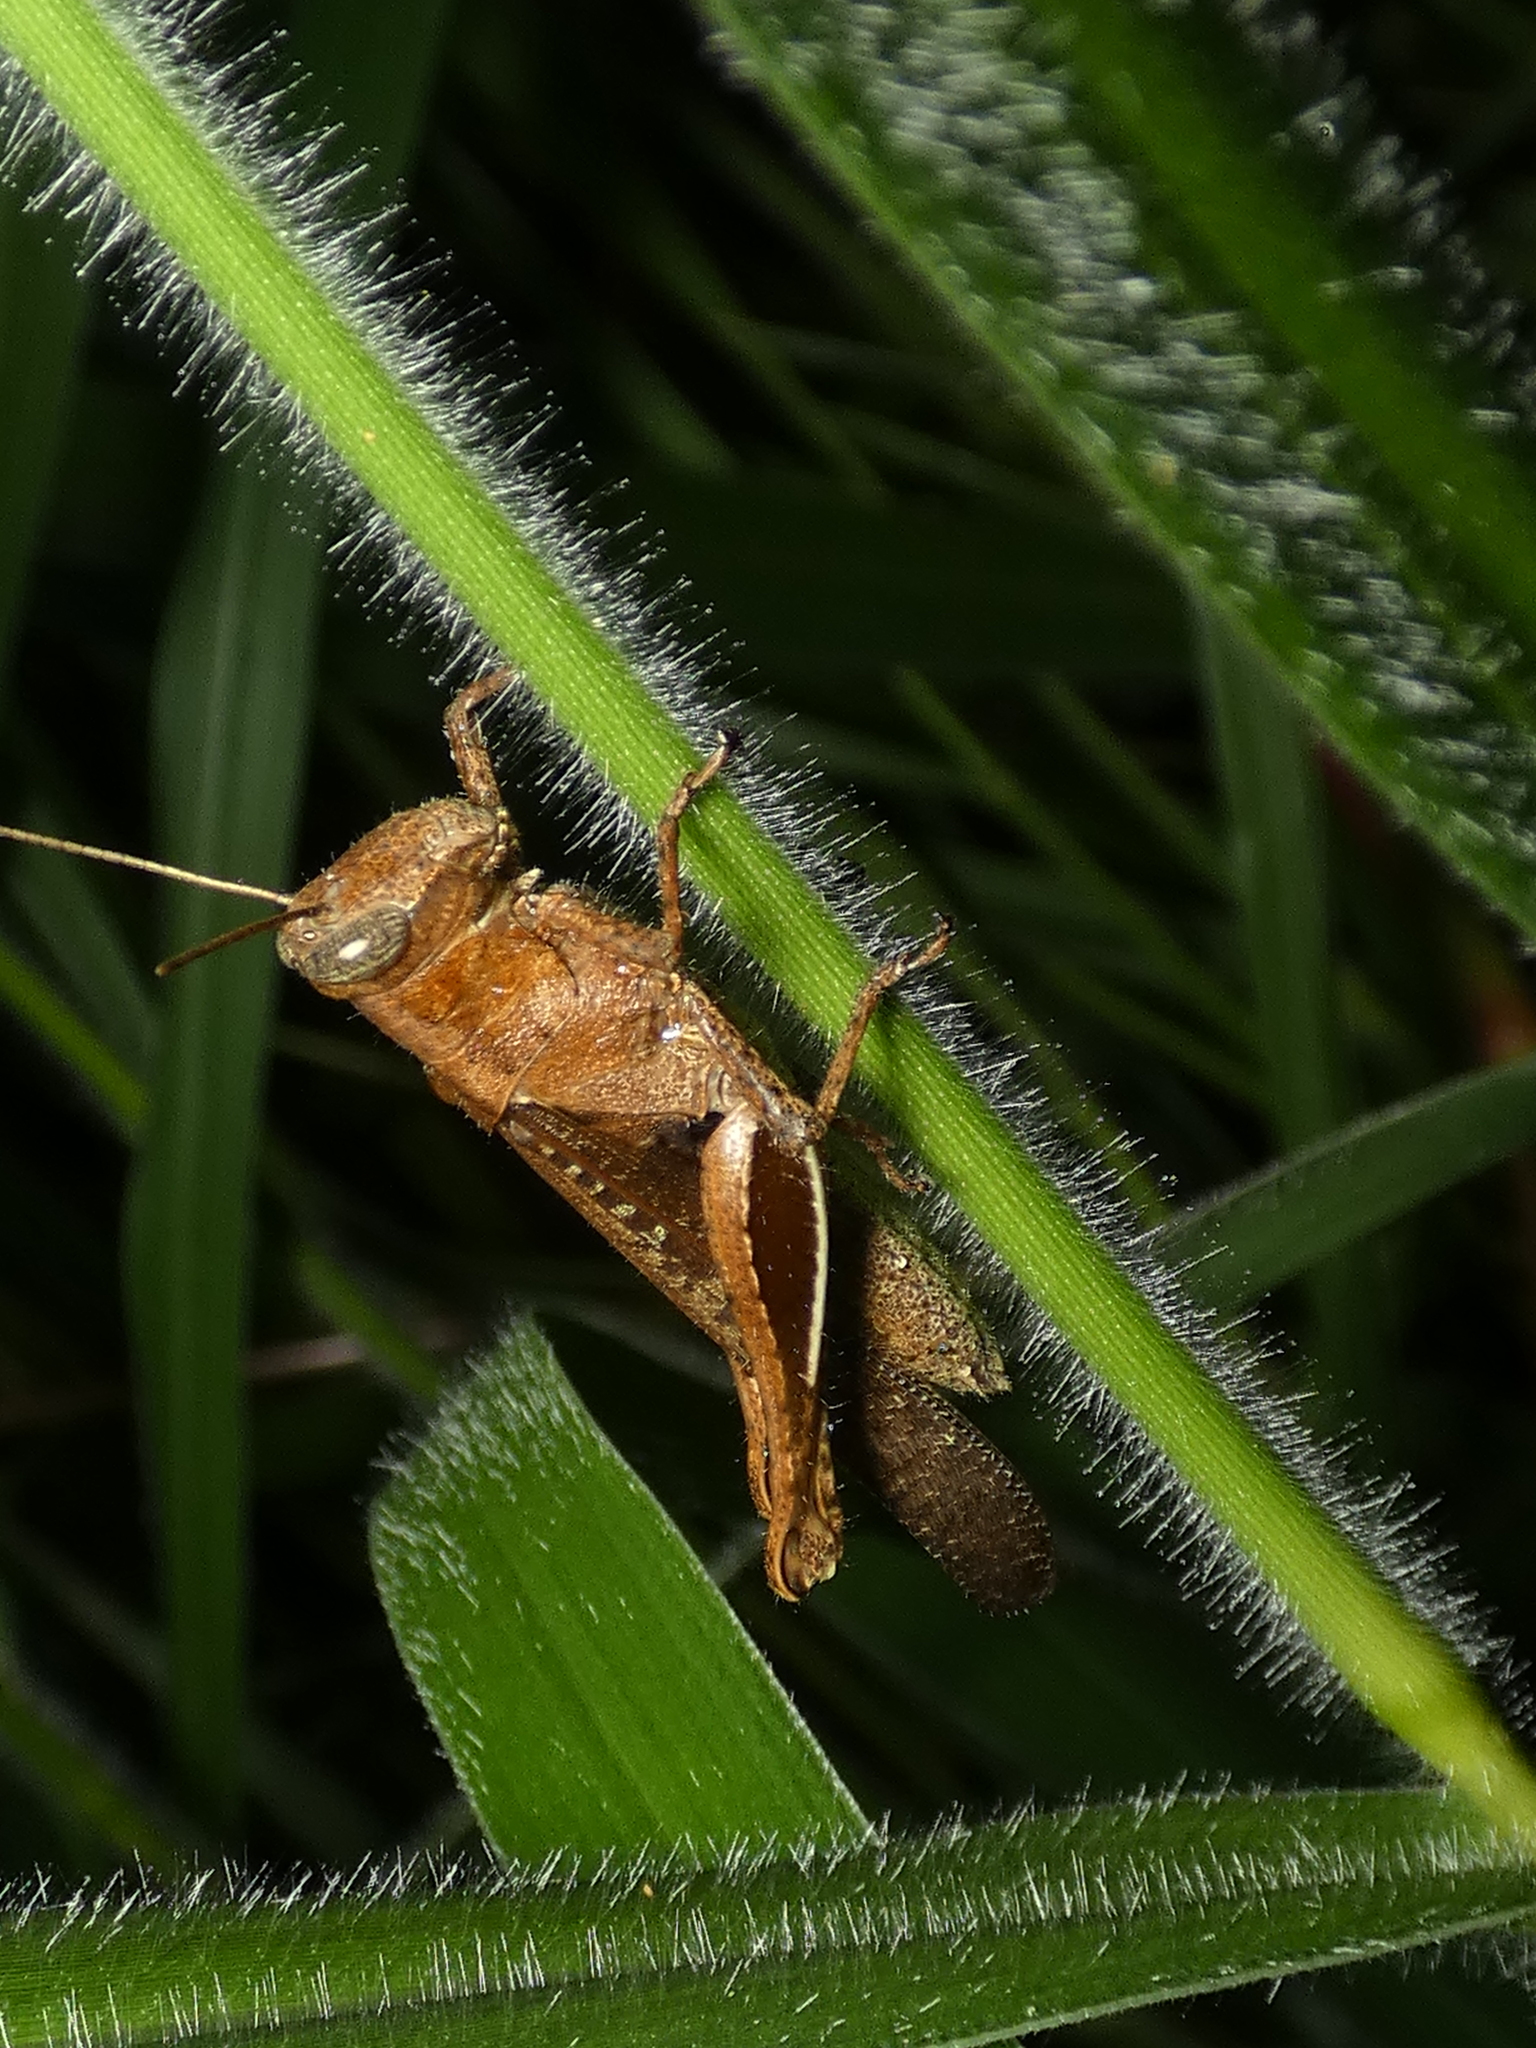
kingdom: Animalia
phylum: Arthropoda
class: Insecta
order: Orthoptera
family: Acrididae
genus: Abracris
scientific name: Abracris flavolineata
